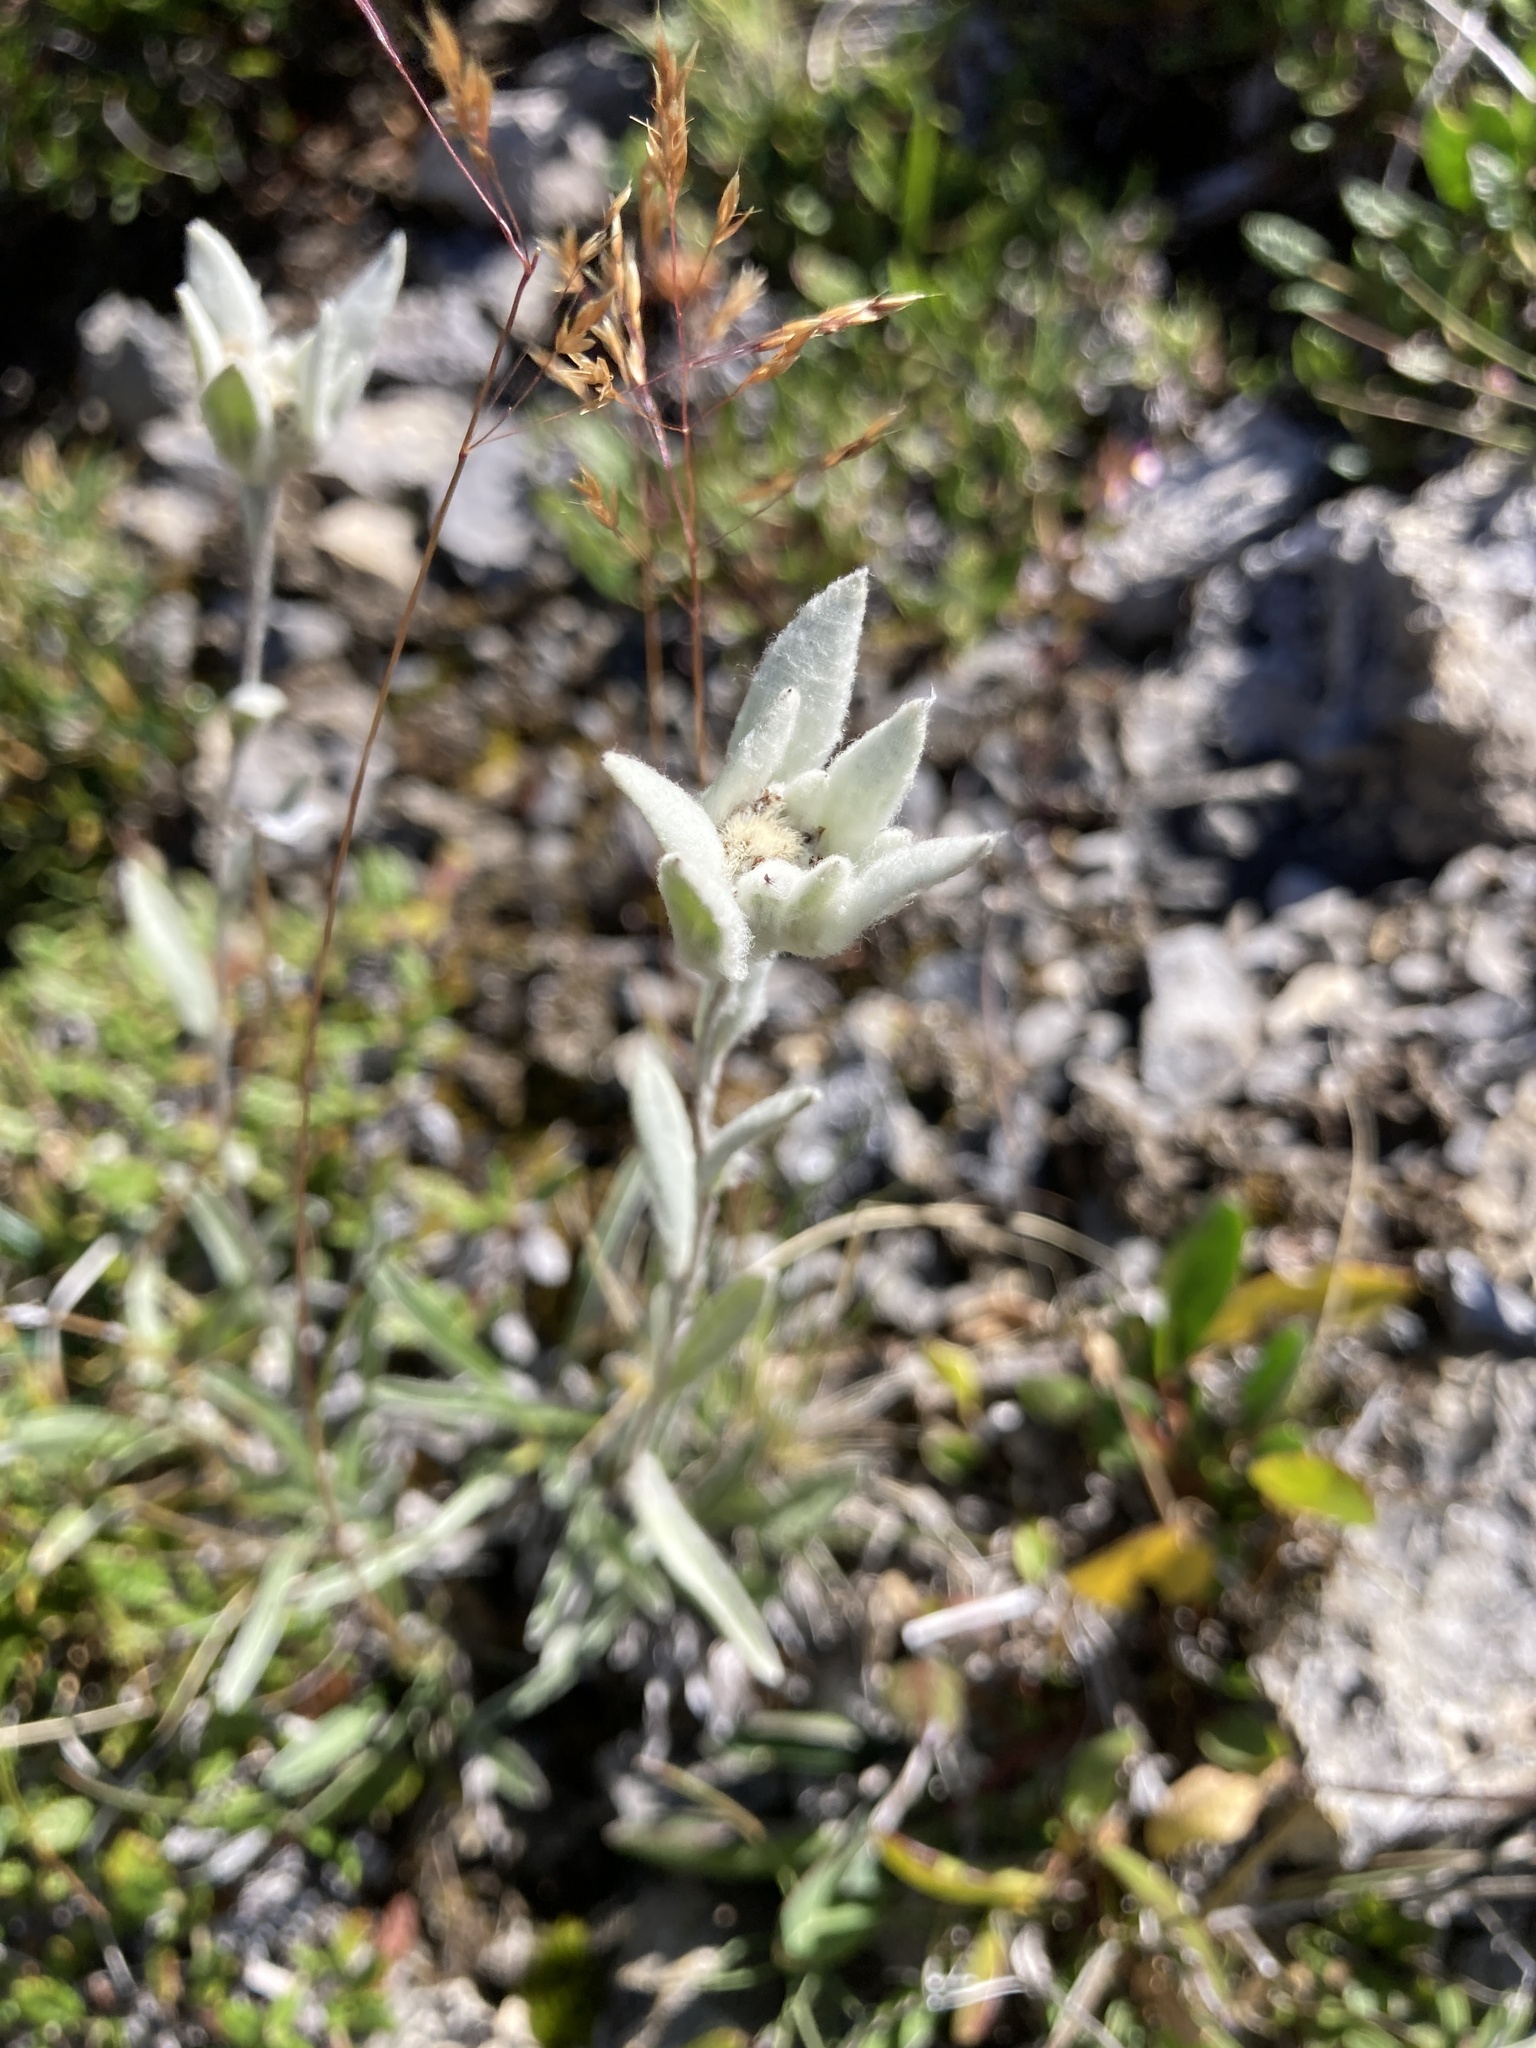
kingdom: Plantae
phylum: Tracheophyta
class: Magnoliopsida
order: Asterales
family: Asteraceae
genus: Leontopodium
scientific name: Leontopodium nivale
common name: Edelweiss
